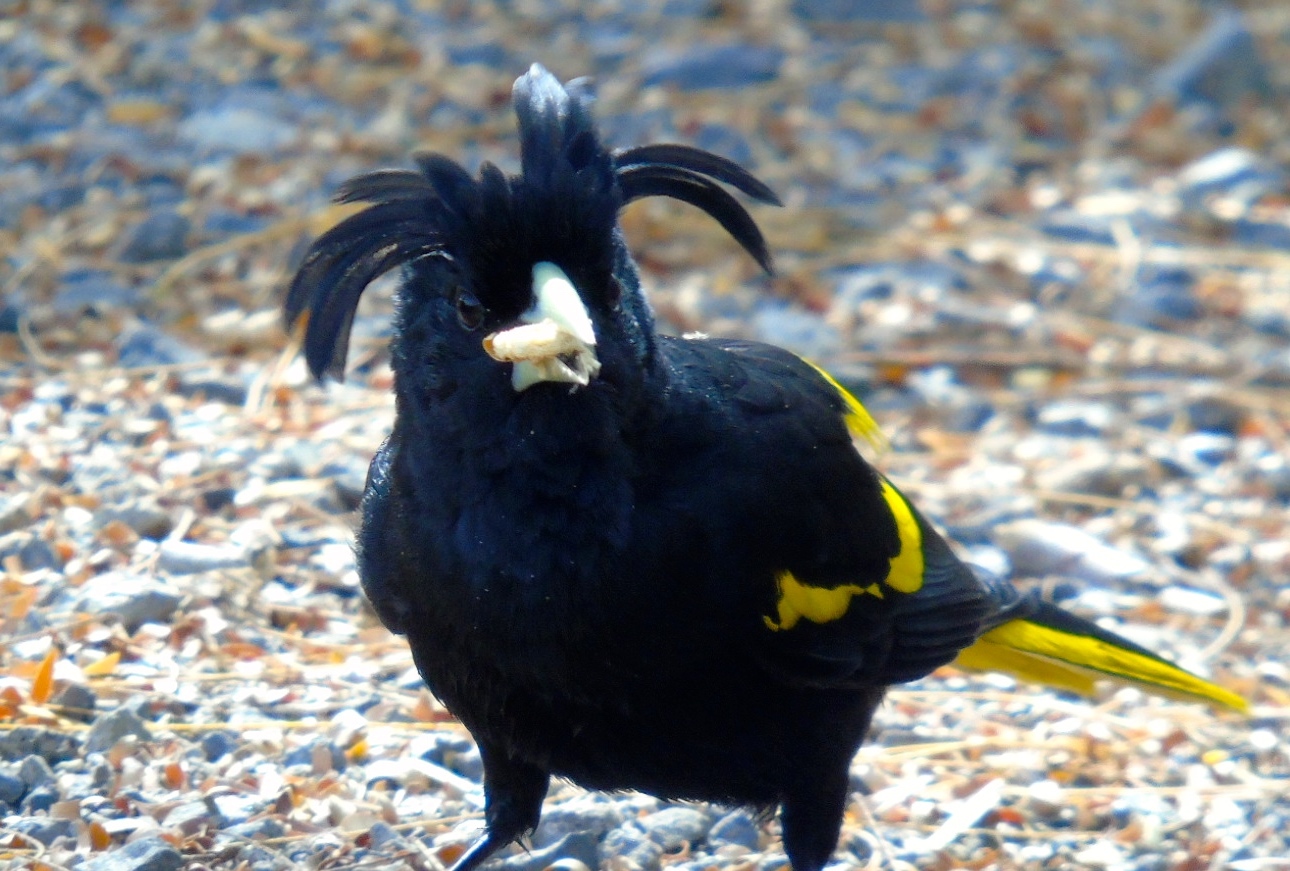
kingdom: Animalia
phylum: Chordata
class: Aves
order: Passeriformes
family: Icteridae
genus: Cacicus
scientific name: Cacicus melanicterus
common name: Yellow-winged cacique
